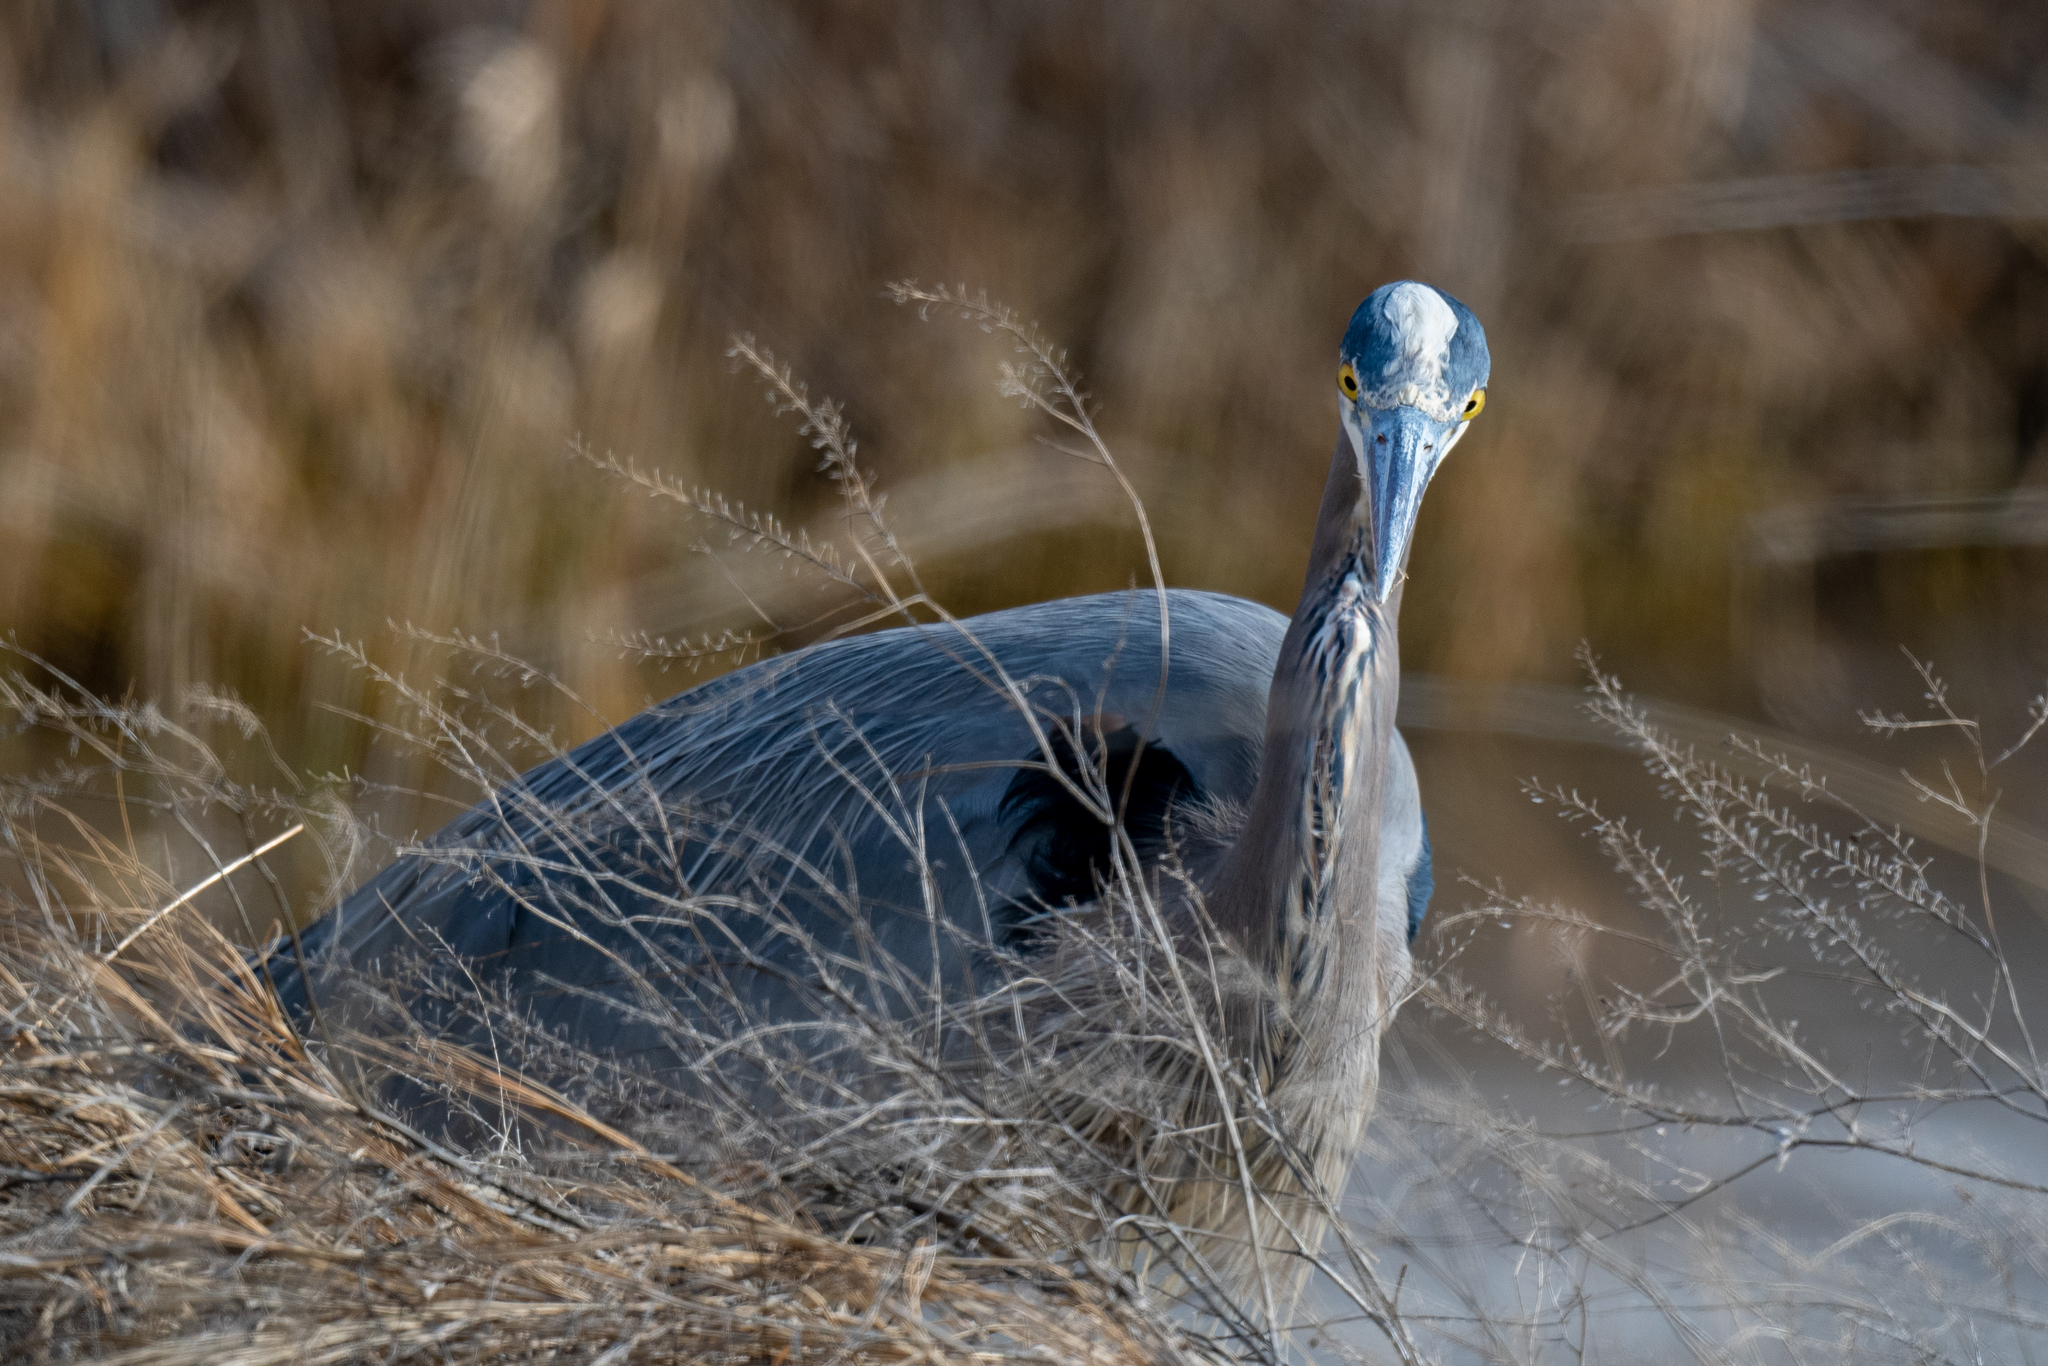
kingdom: Animalia
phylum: Chordata
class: Aves
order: Pelecaniformes
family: Ardeidae
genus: Ardea
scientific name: Ardea herodias
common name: Great blue heron
